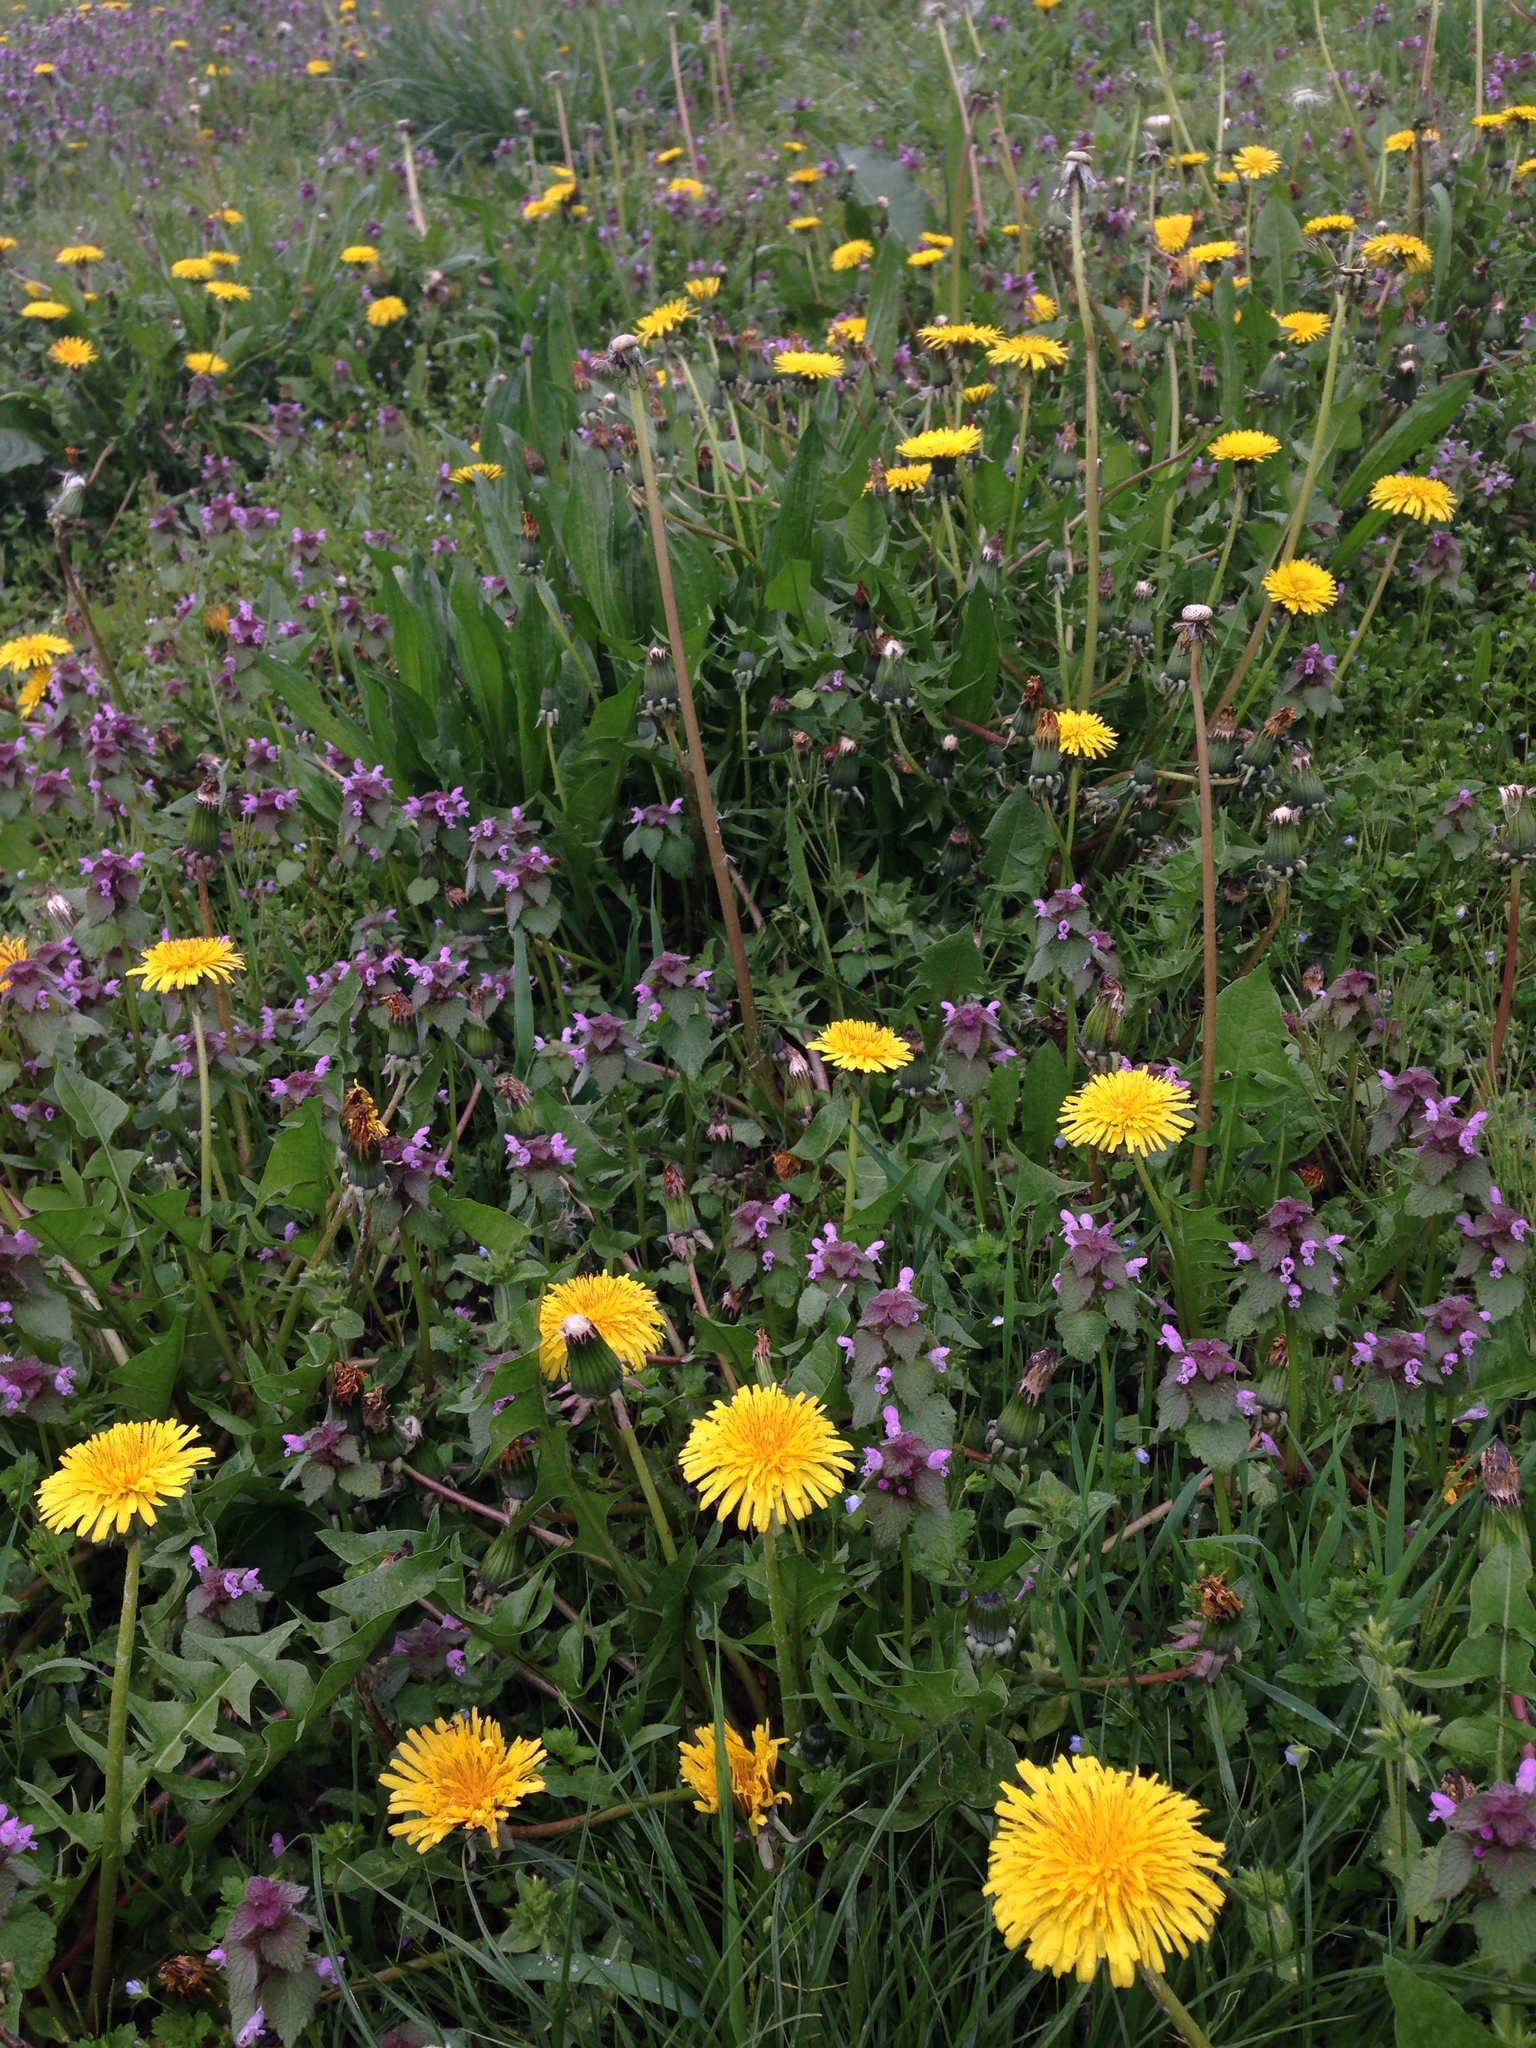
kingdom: Plantae
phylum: Tracheophyta
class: Magnoliopsida
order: Lamiales
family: Lamiaceae
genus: Lamium
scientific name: Lamium purpureum
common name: Red dead-nettle
